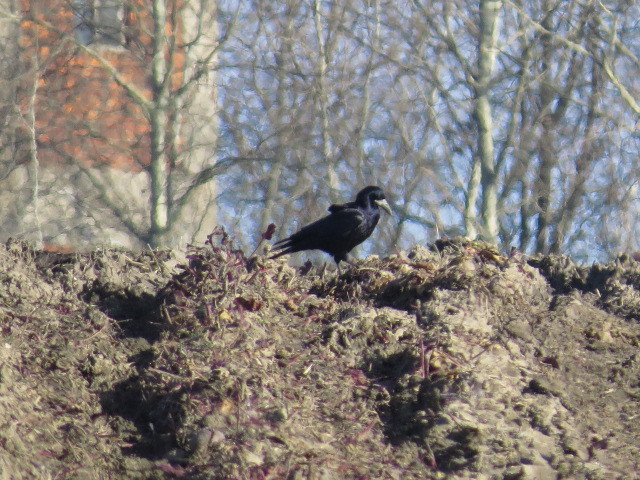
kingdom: Animalia
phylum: Chordata
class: Aves
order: Passeriformes
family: Corvidae
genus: Corvus
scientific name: Corvus frugilegus
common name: Rook
